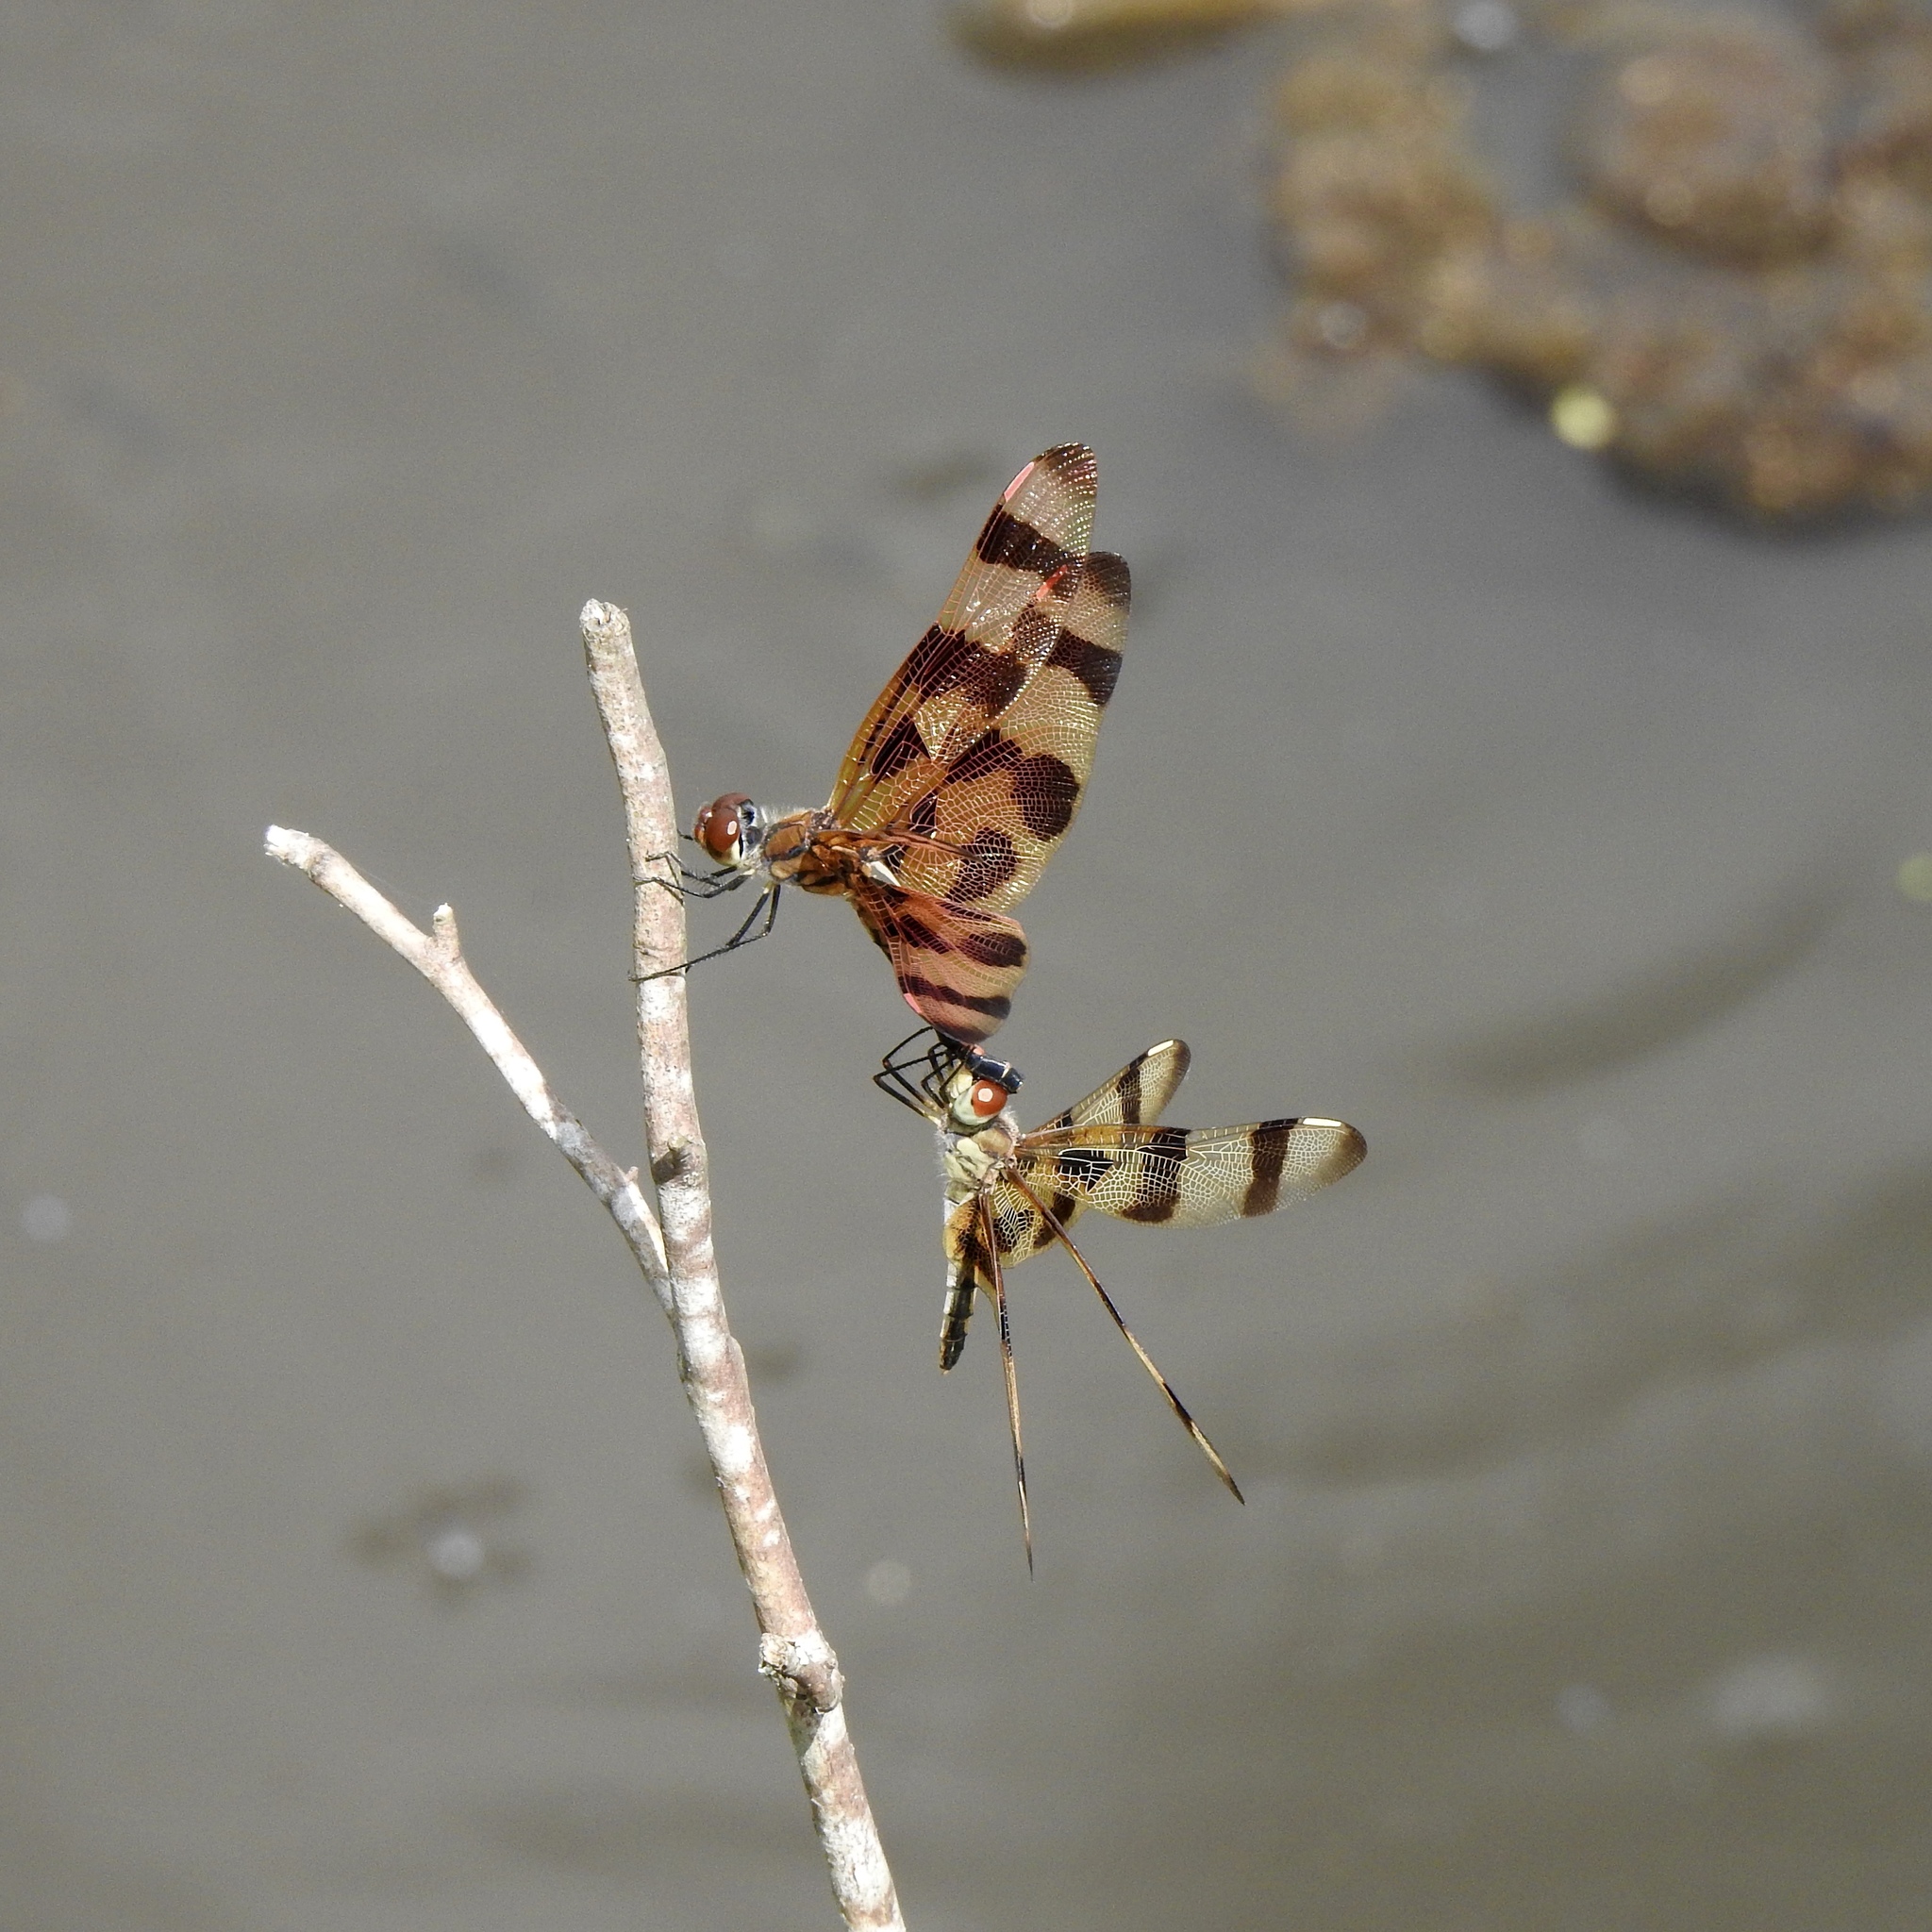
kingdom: Animalia
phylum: Arthropoda
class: Insecta
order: Odonata
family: Libellulidae
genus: Celithemis
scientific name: Celithemis eponina
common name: Halloween pennant
